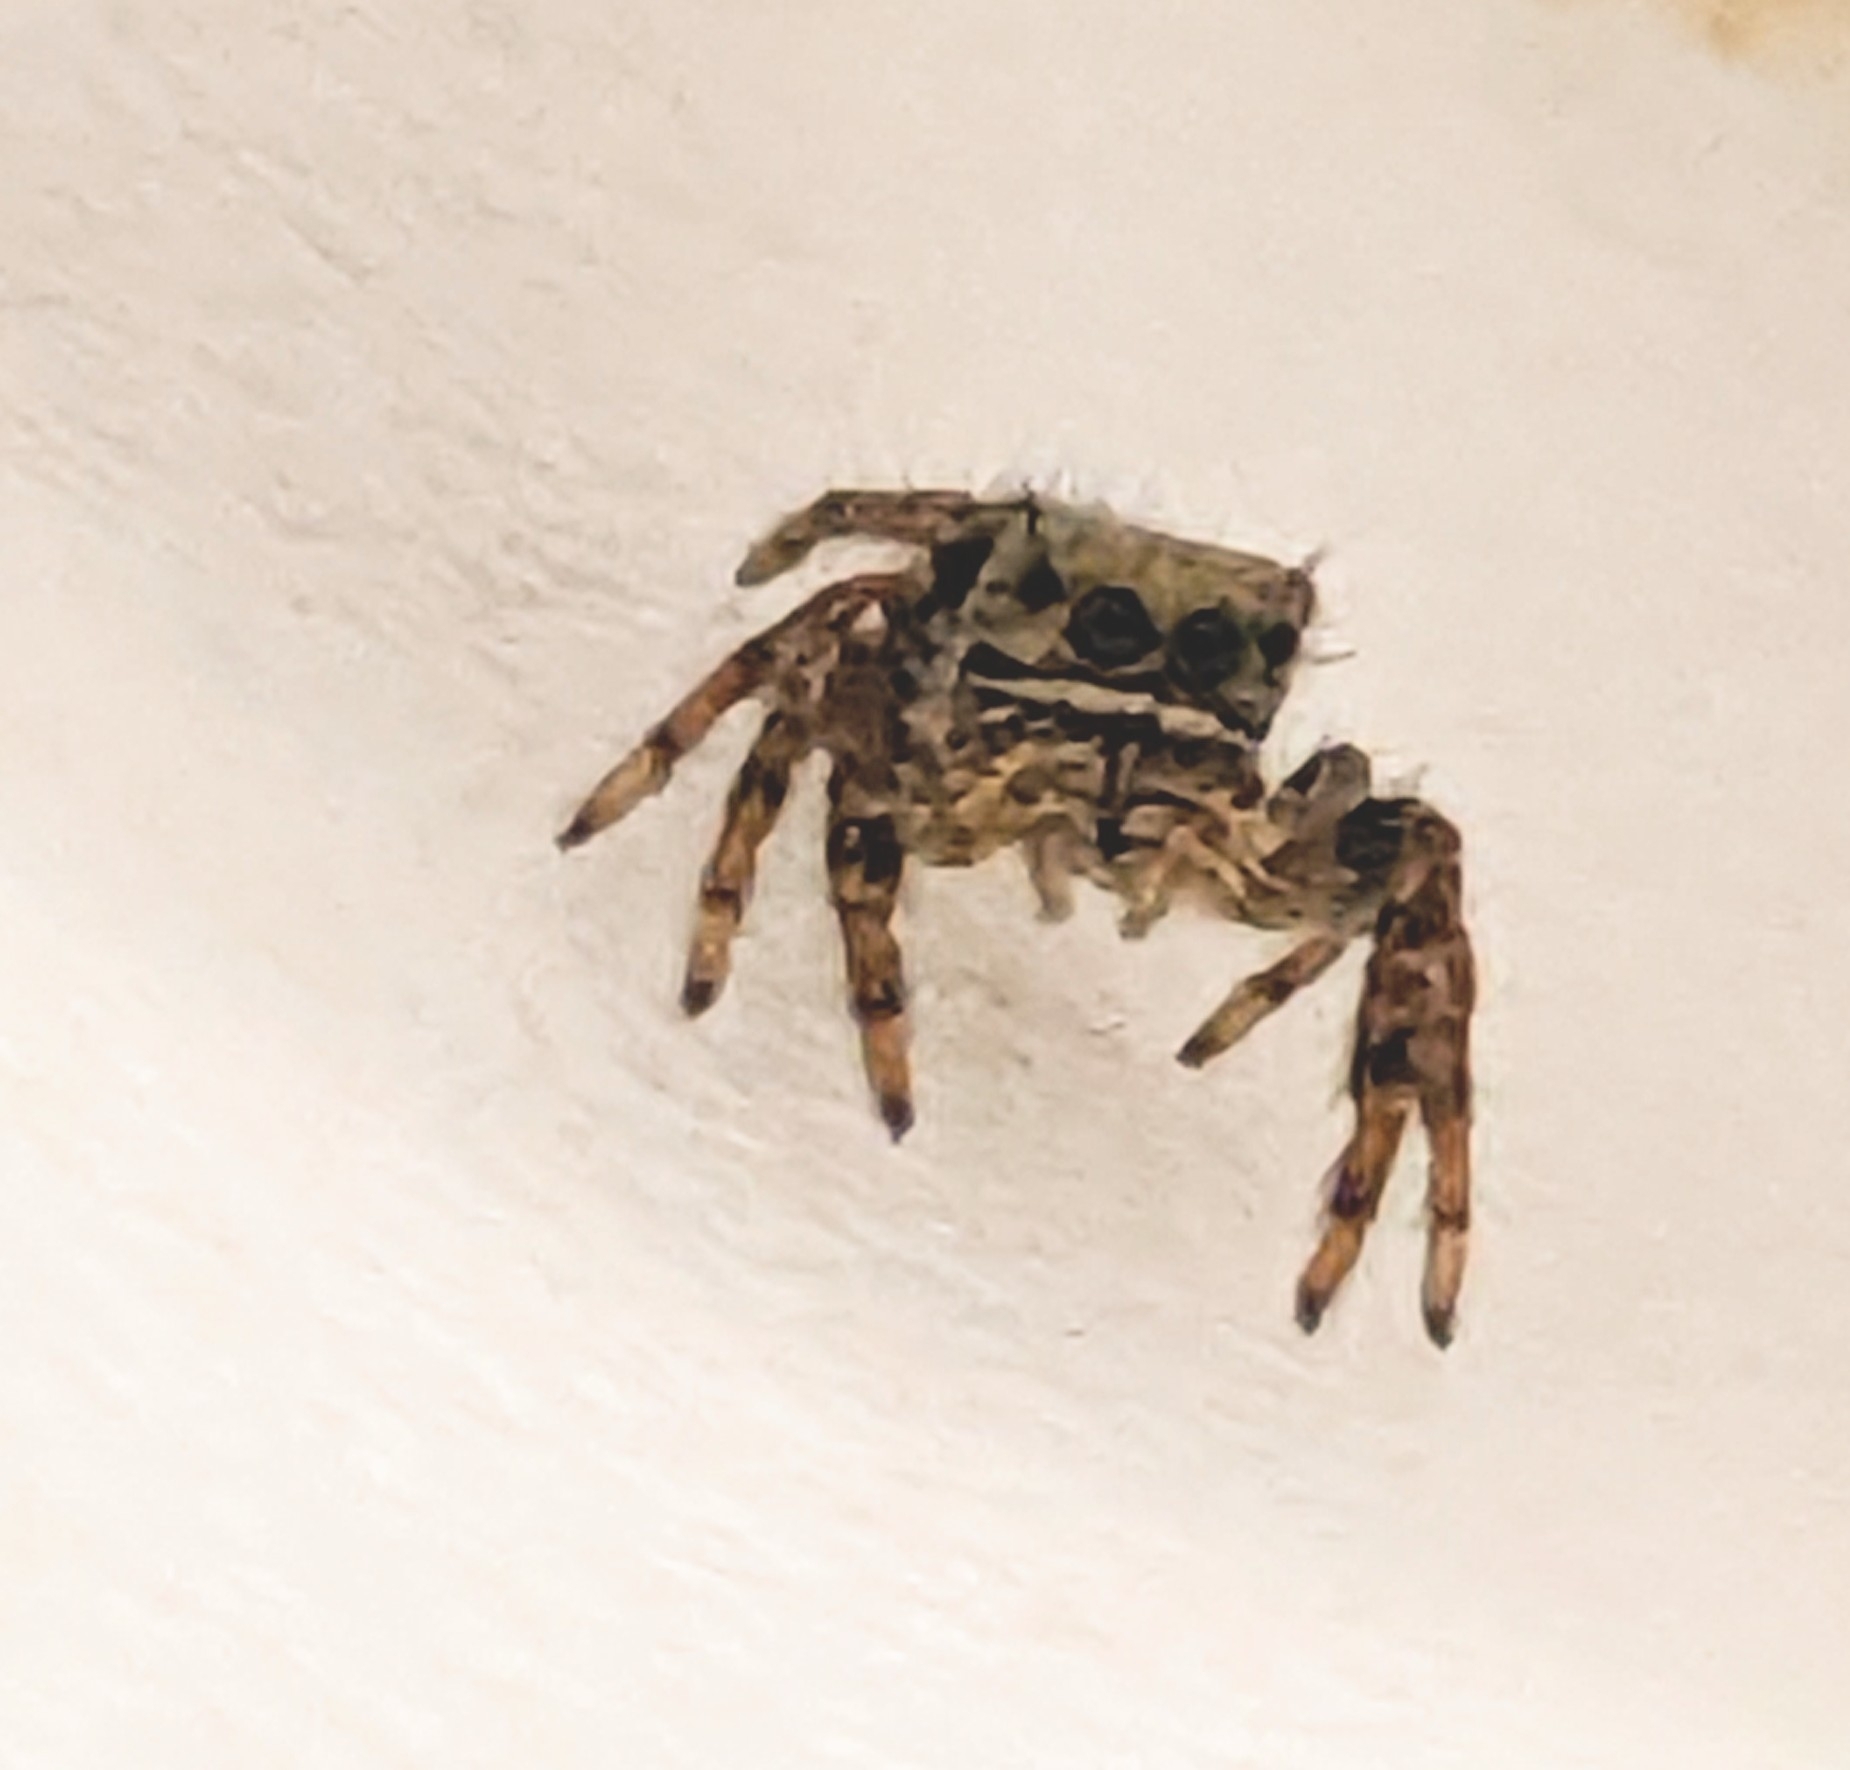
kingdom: Animalia
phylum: Arthropoda
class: Arachnida
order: Araneae
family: Salticidae
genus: Phidippus
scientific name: Phidippus audax
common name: Bold jumper
